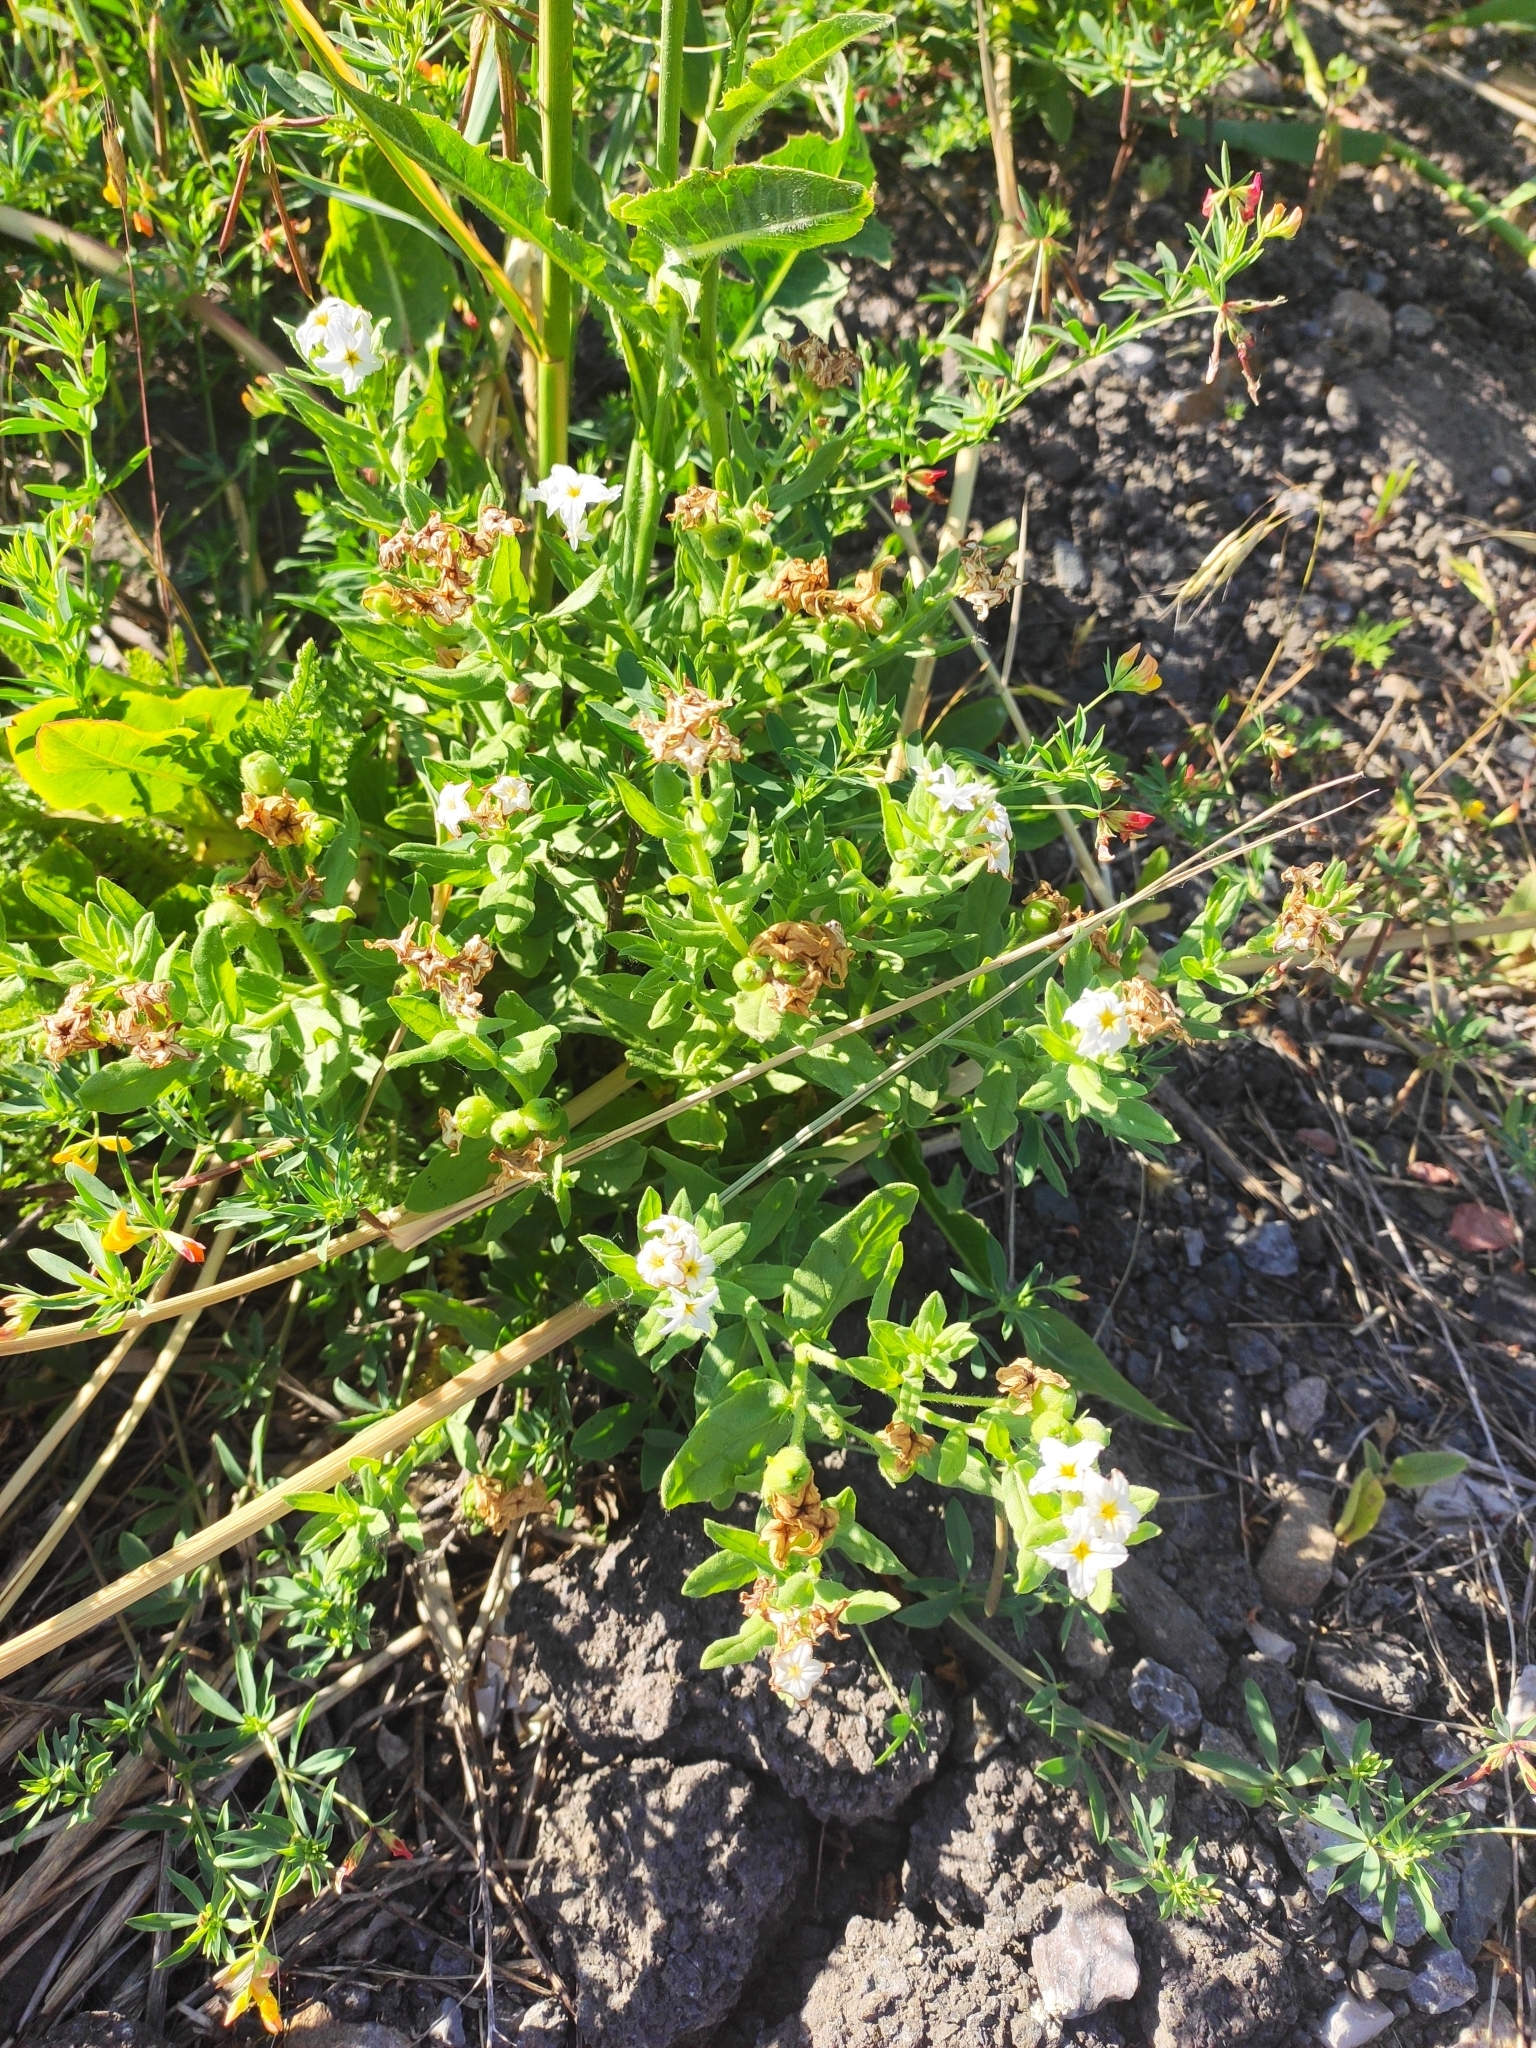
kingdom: Plantae
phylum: Tracheophyta
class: Magnoliopsida
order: Boraginales
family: Heliotropiaceae
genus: Tournefortia
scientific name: Tournefortia sibirica
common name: Siberian sea rosemary
